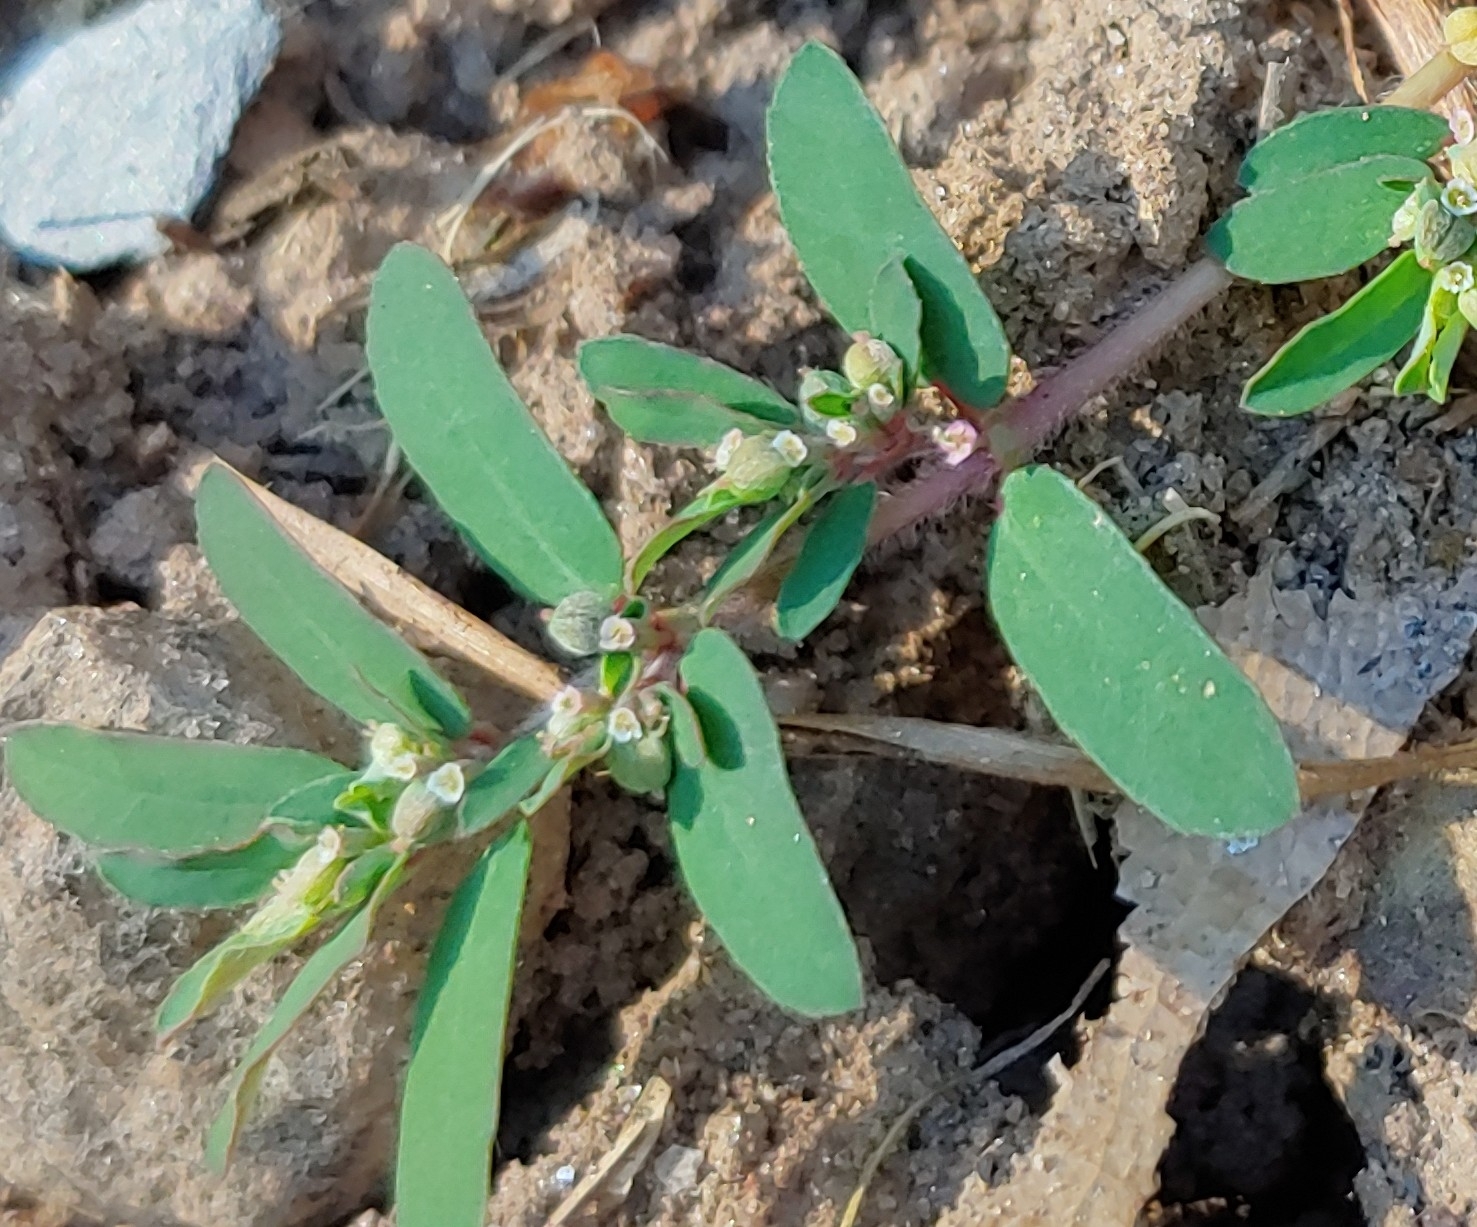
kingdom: Plantae
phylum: Tracheophyta
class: Magnoliopsida
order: Malpighiales
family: Euphorbiaceae
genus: Euphorbia
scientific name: Euphorbia maculata
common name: Spotted spurge
